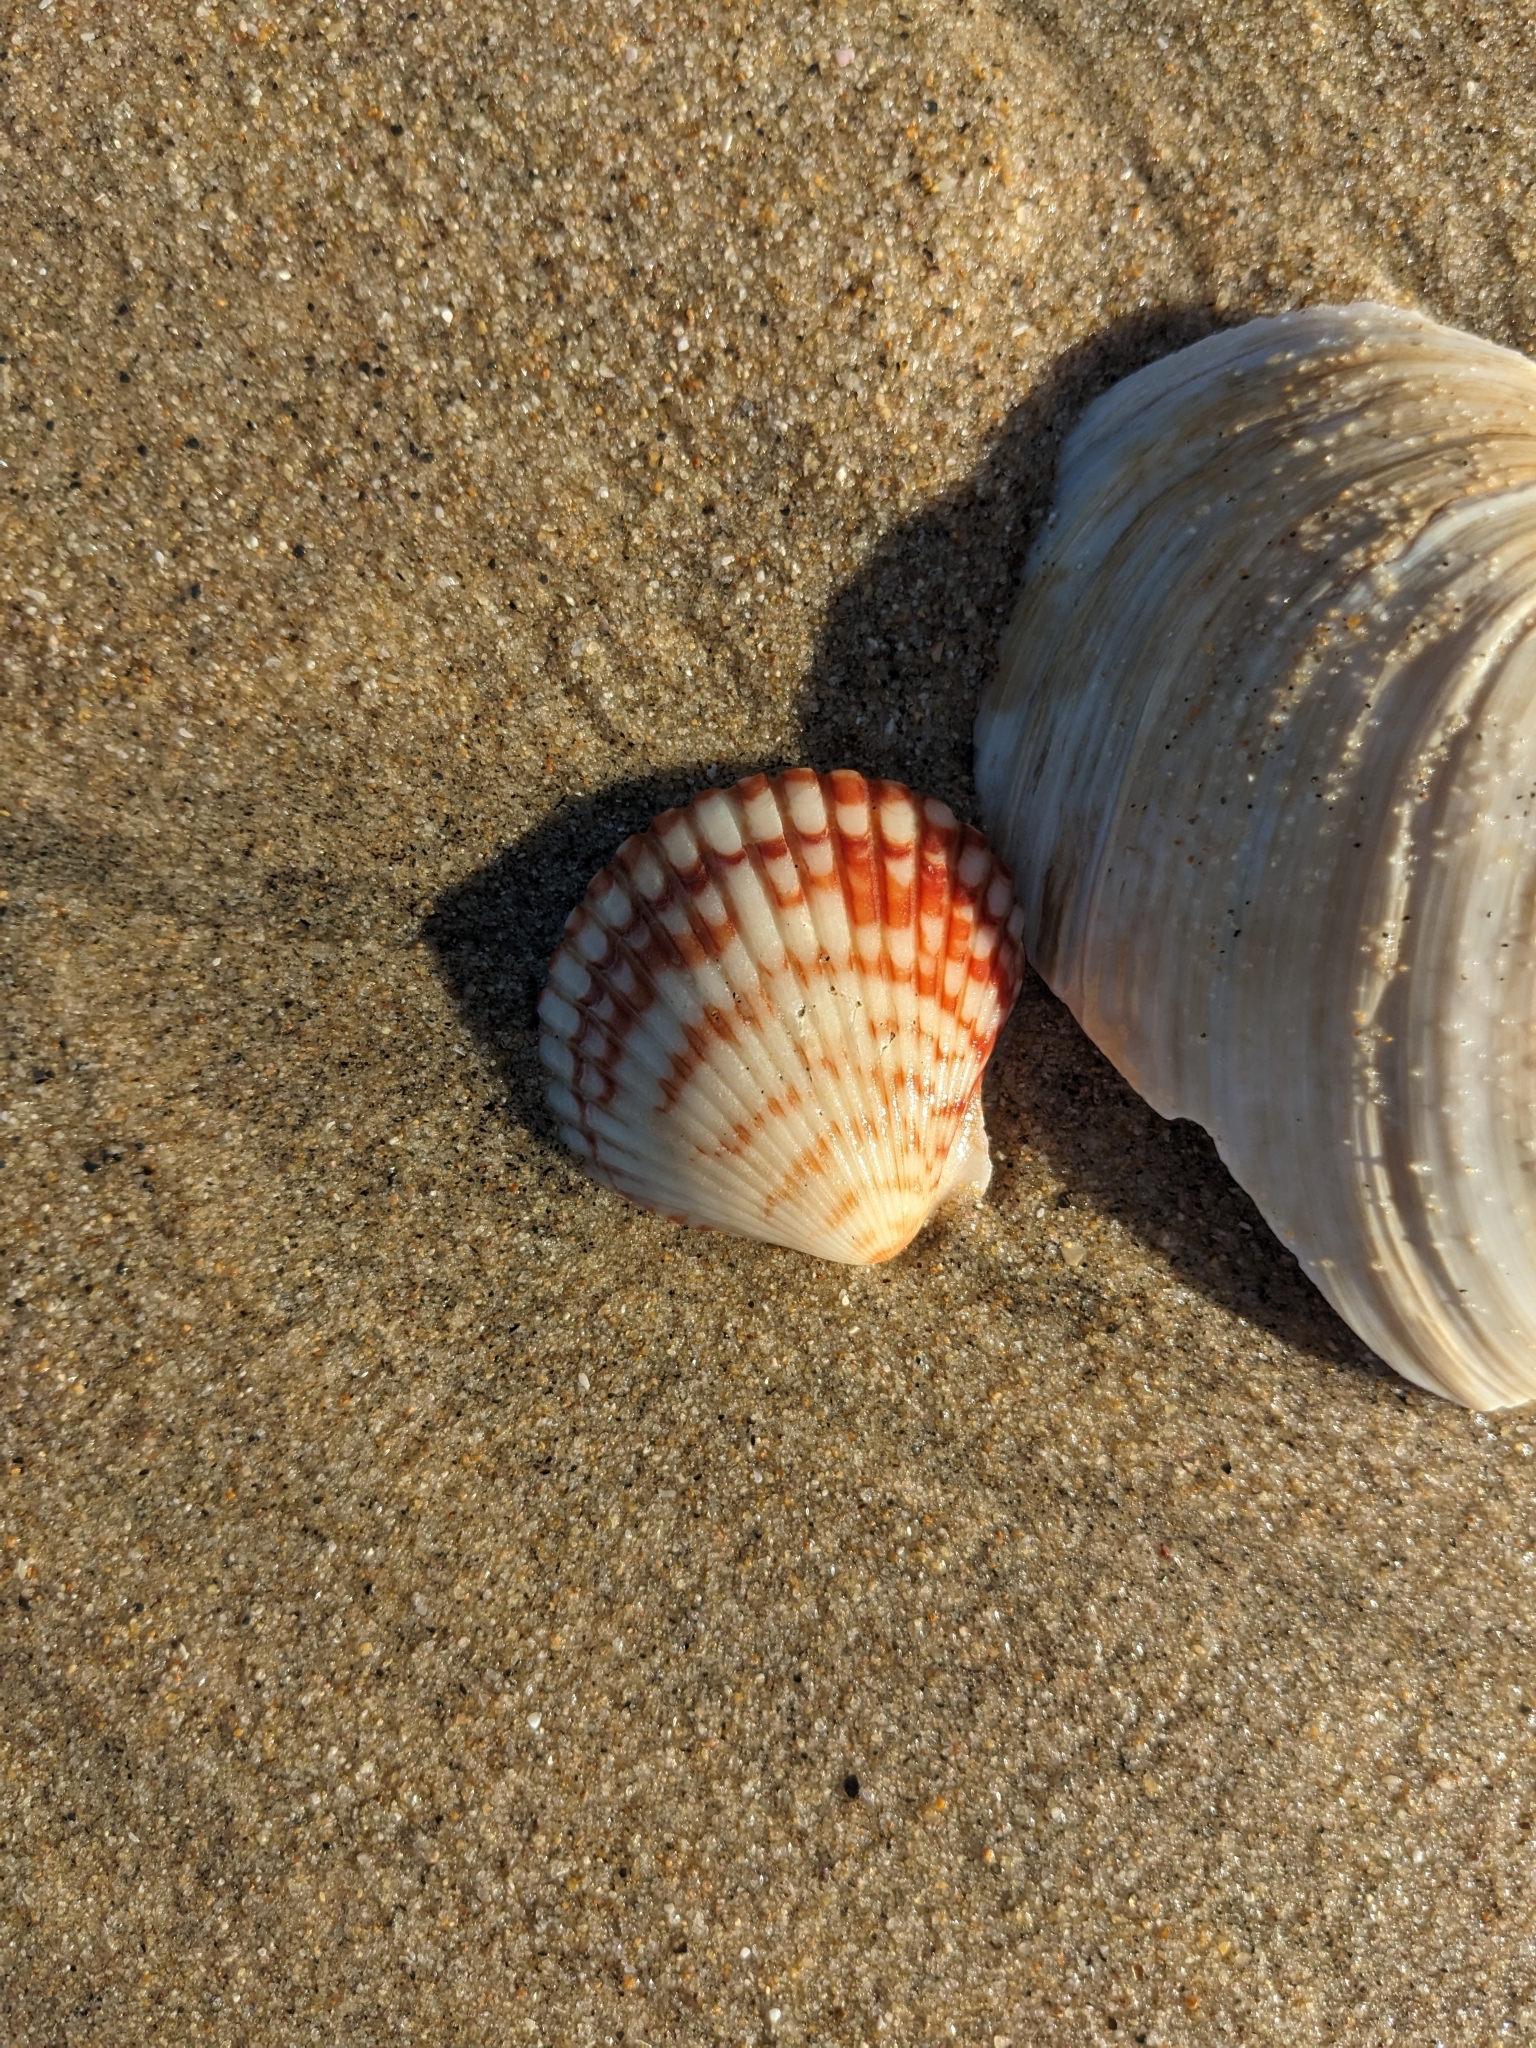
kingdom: Animalia
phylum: Mollusca
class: Bivalvia
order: Pectinida
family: Pectinidae
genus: Argopecten
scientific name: Argopecten ventricosus
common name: Catarina scallop
